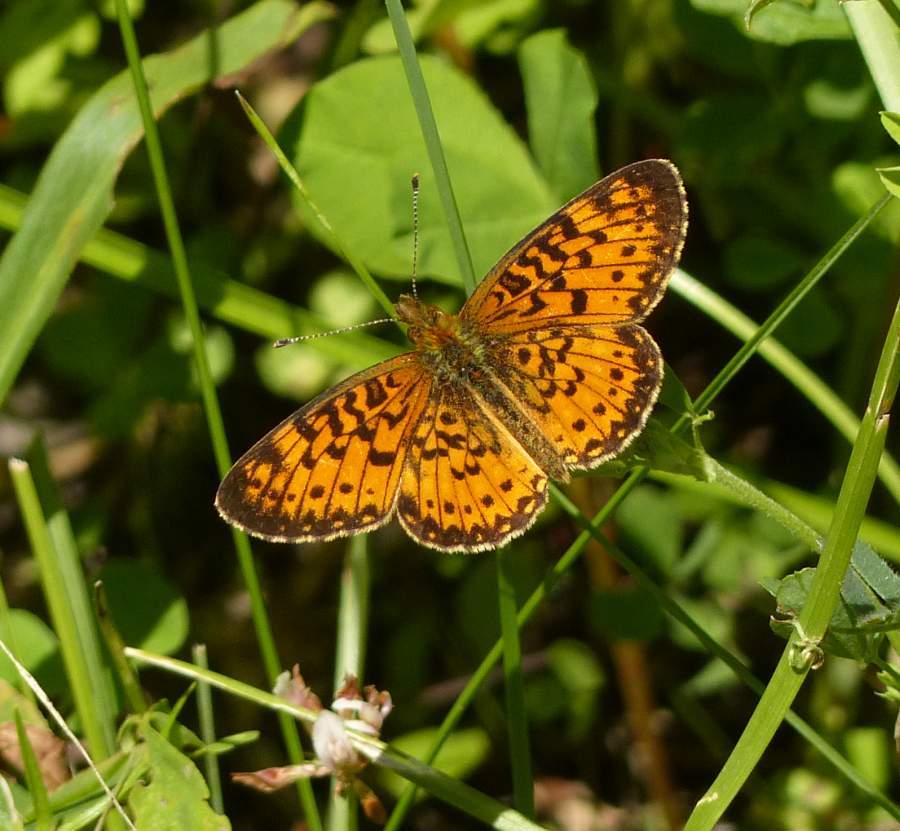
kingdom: Animalia
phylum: Arthropoda
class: Insecta
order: Lepidoptera
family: Nymphalidae
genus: Boloria
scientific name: Boloria
